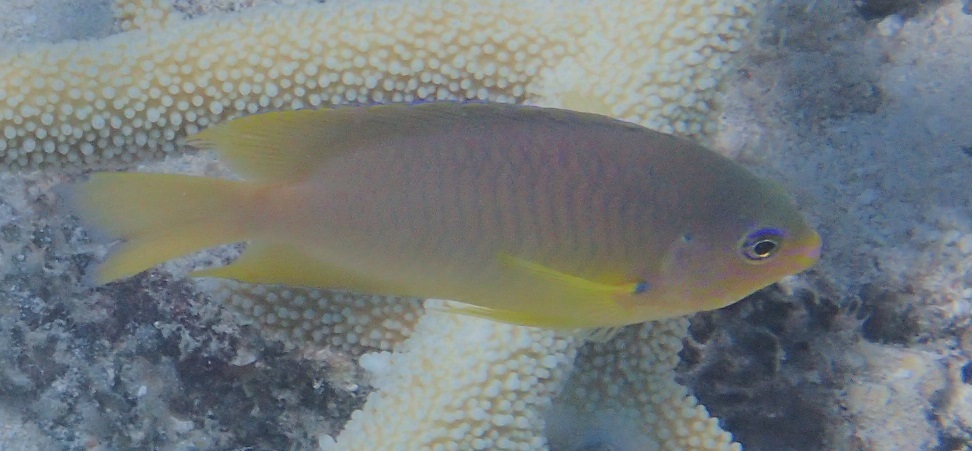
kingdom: Animalia
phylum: Chordata
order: Perciformes
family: Pomacentridae
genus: Pomacentrus
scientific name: Pomacentrus amboinensis
